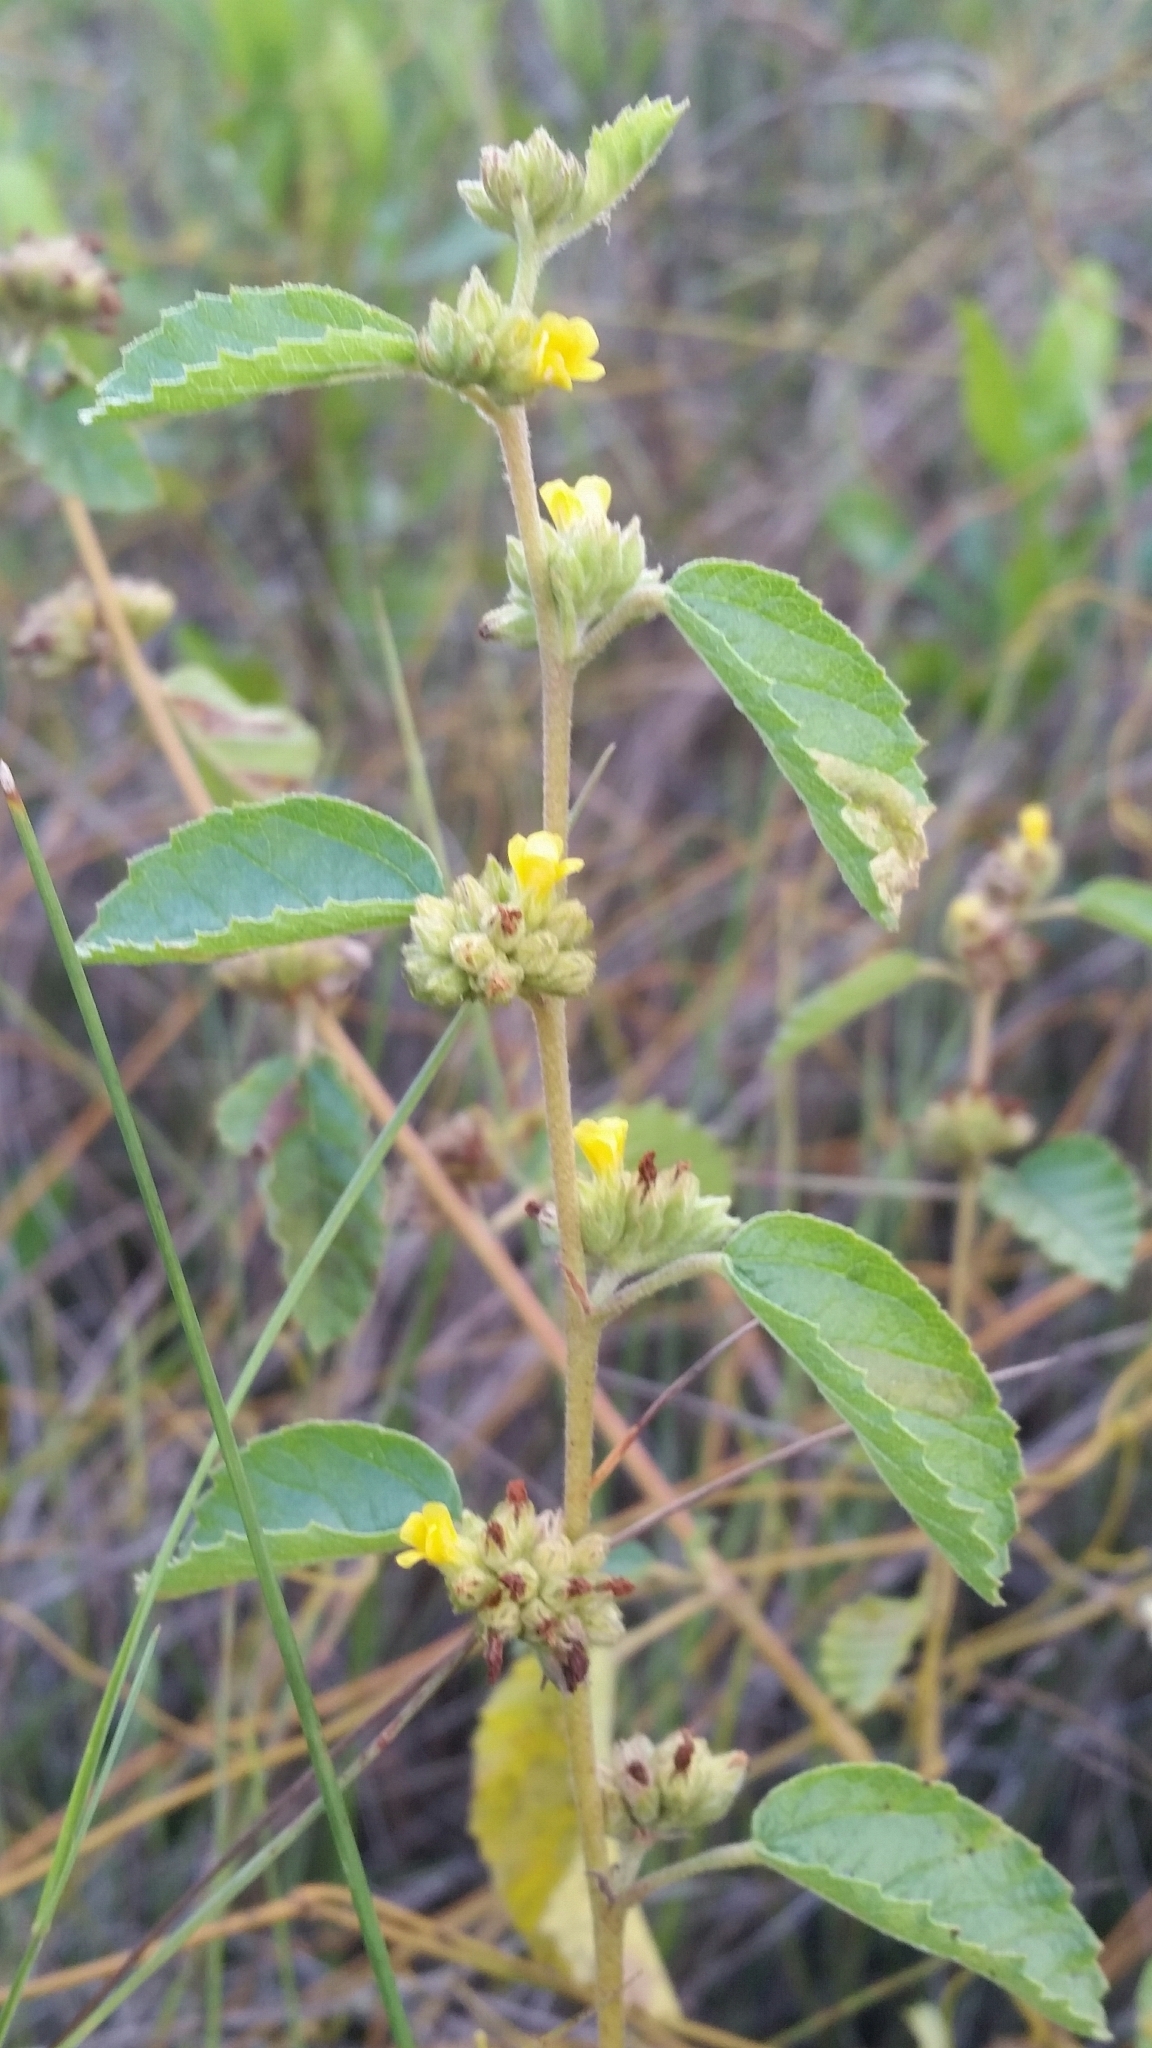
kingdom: Plantae
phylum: Tracheophyta
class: Magnoliopsida
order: Malvales
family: Malvaceae
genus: Waltheria
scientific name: Waltheria indica
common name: Leather-coat
